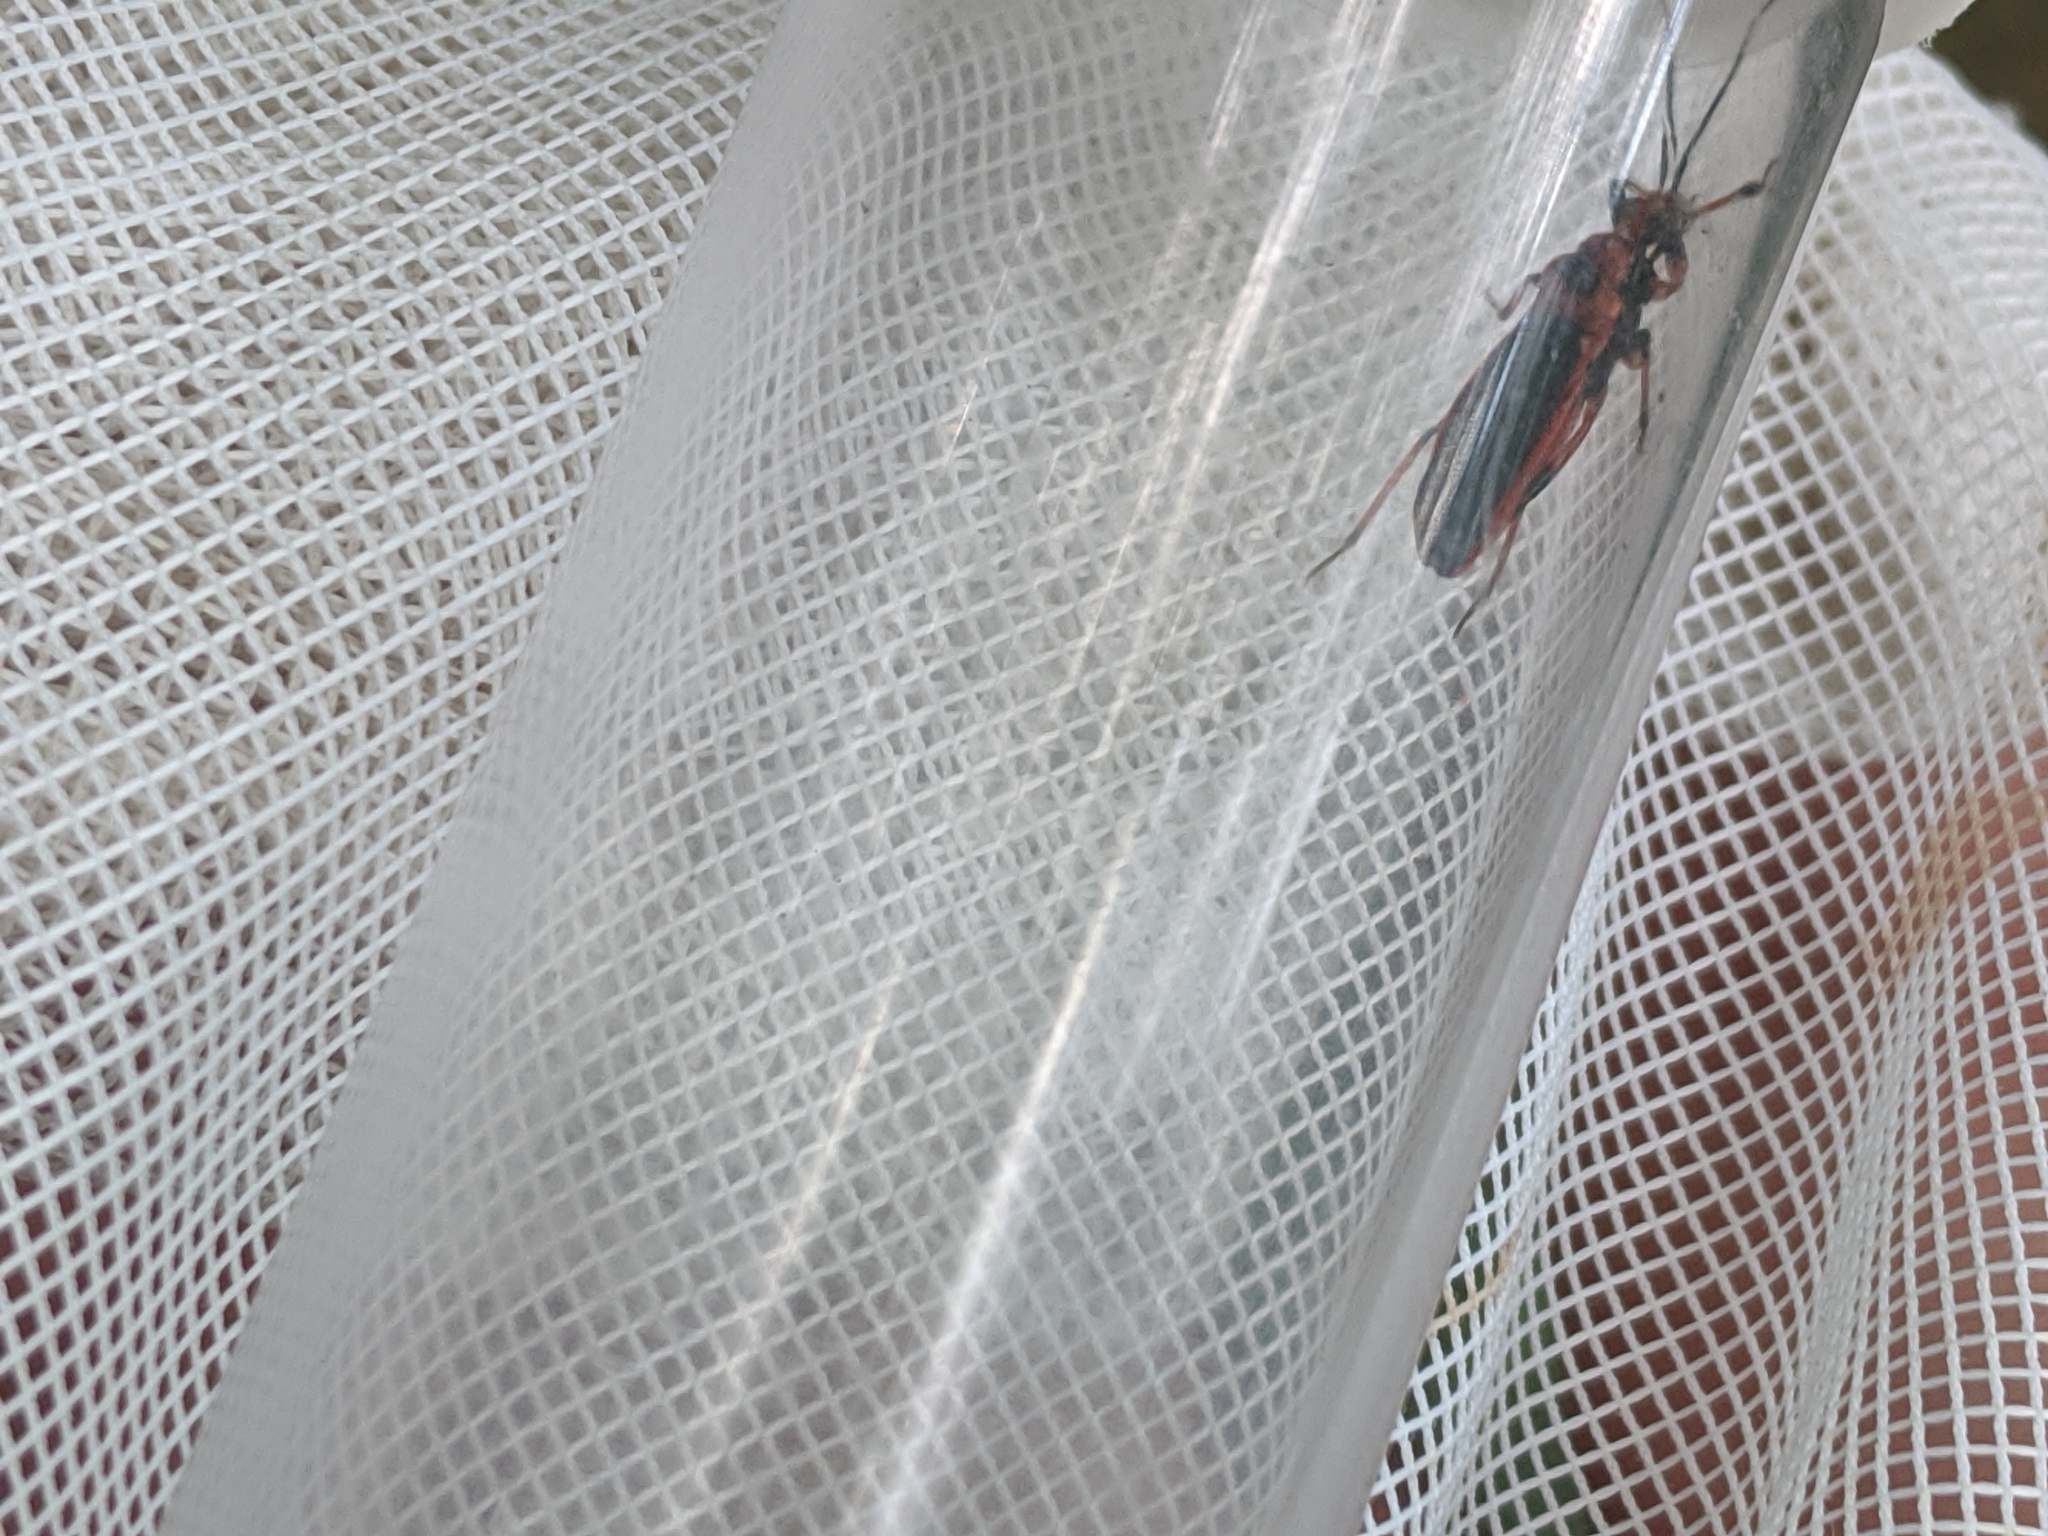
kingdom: Animalia
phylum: Arthropoda
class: Insecta
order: Hemiptera
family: Reduviidae
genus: Rhiginia
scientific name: Rhiginia cruciata
